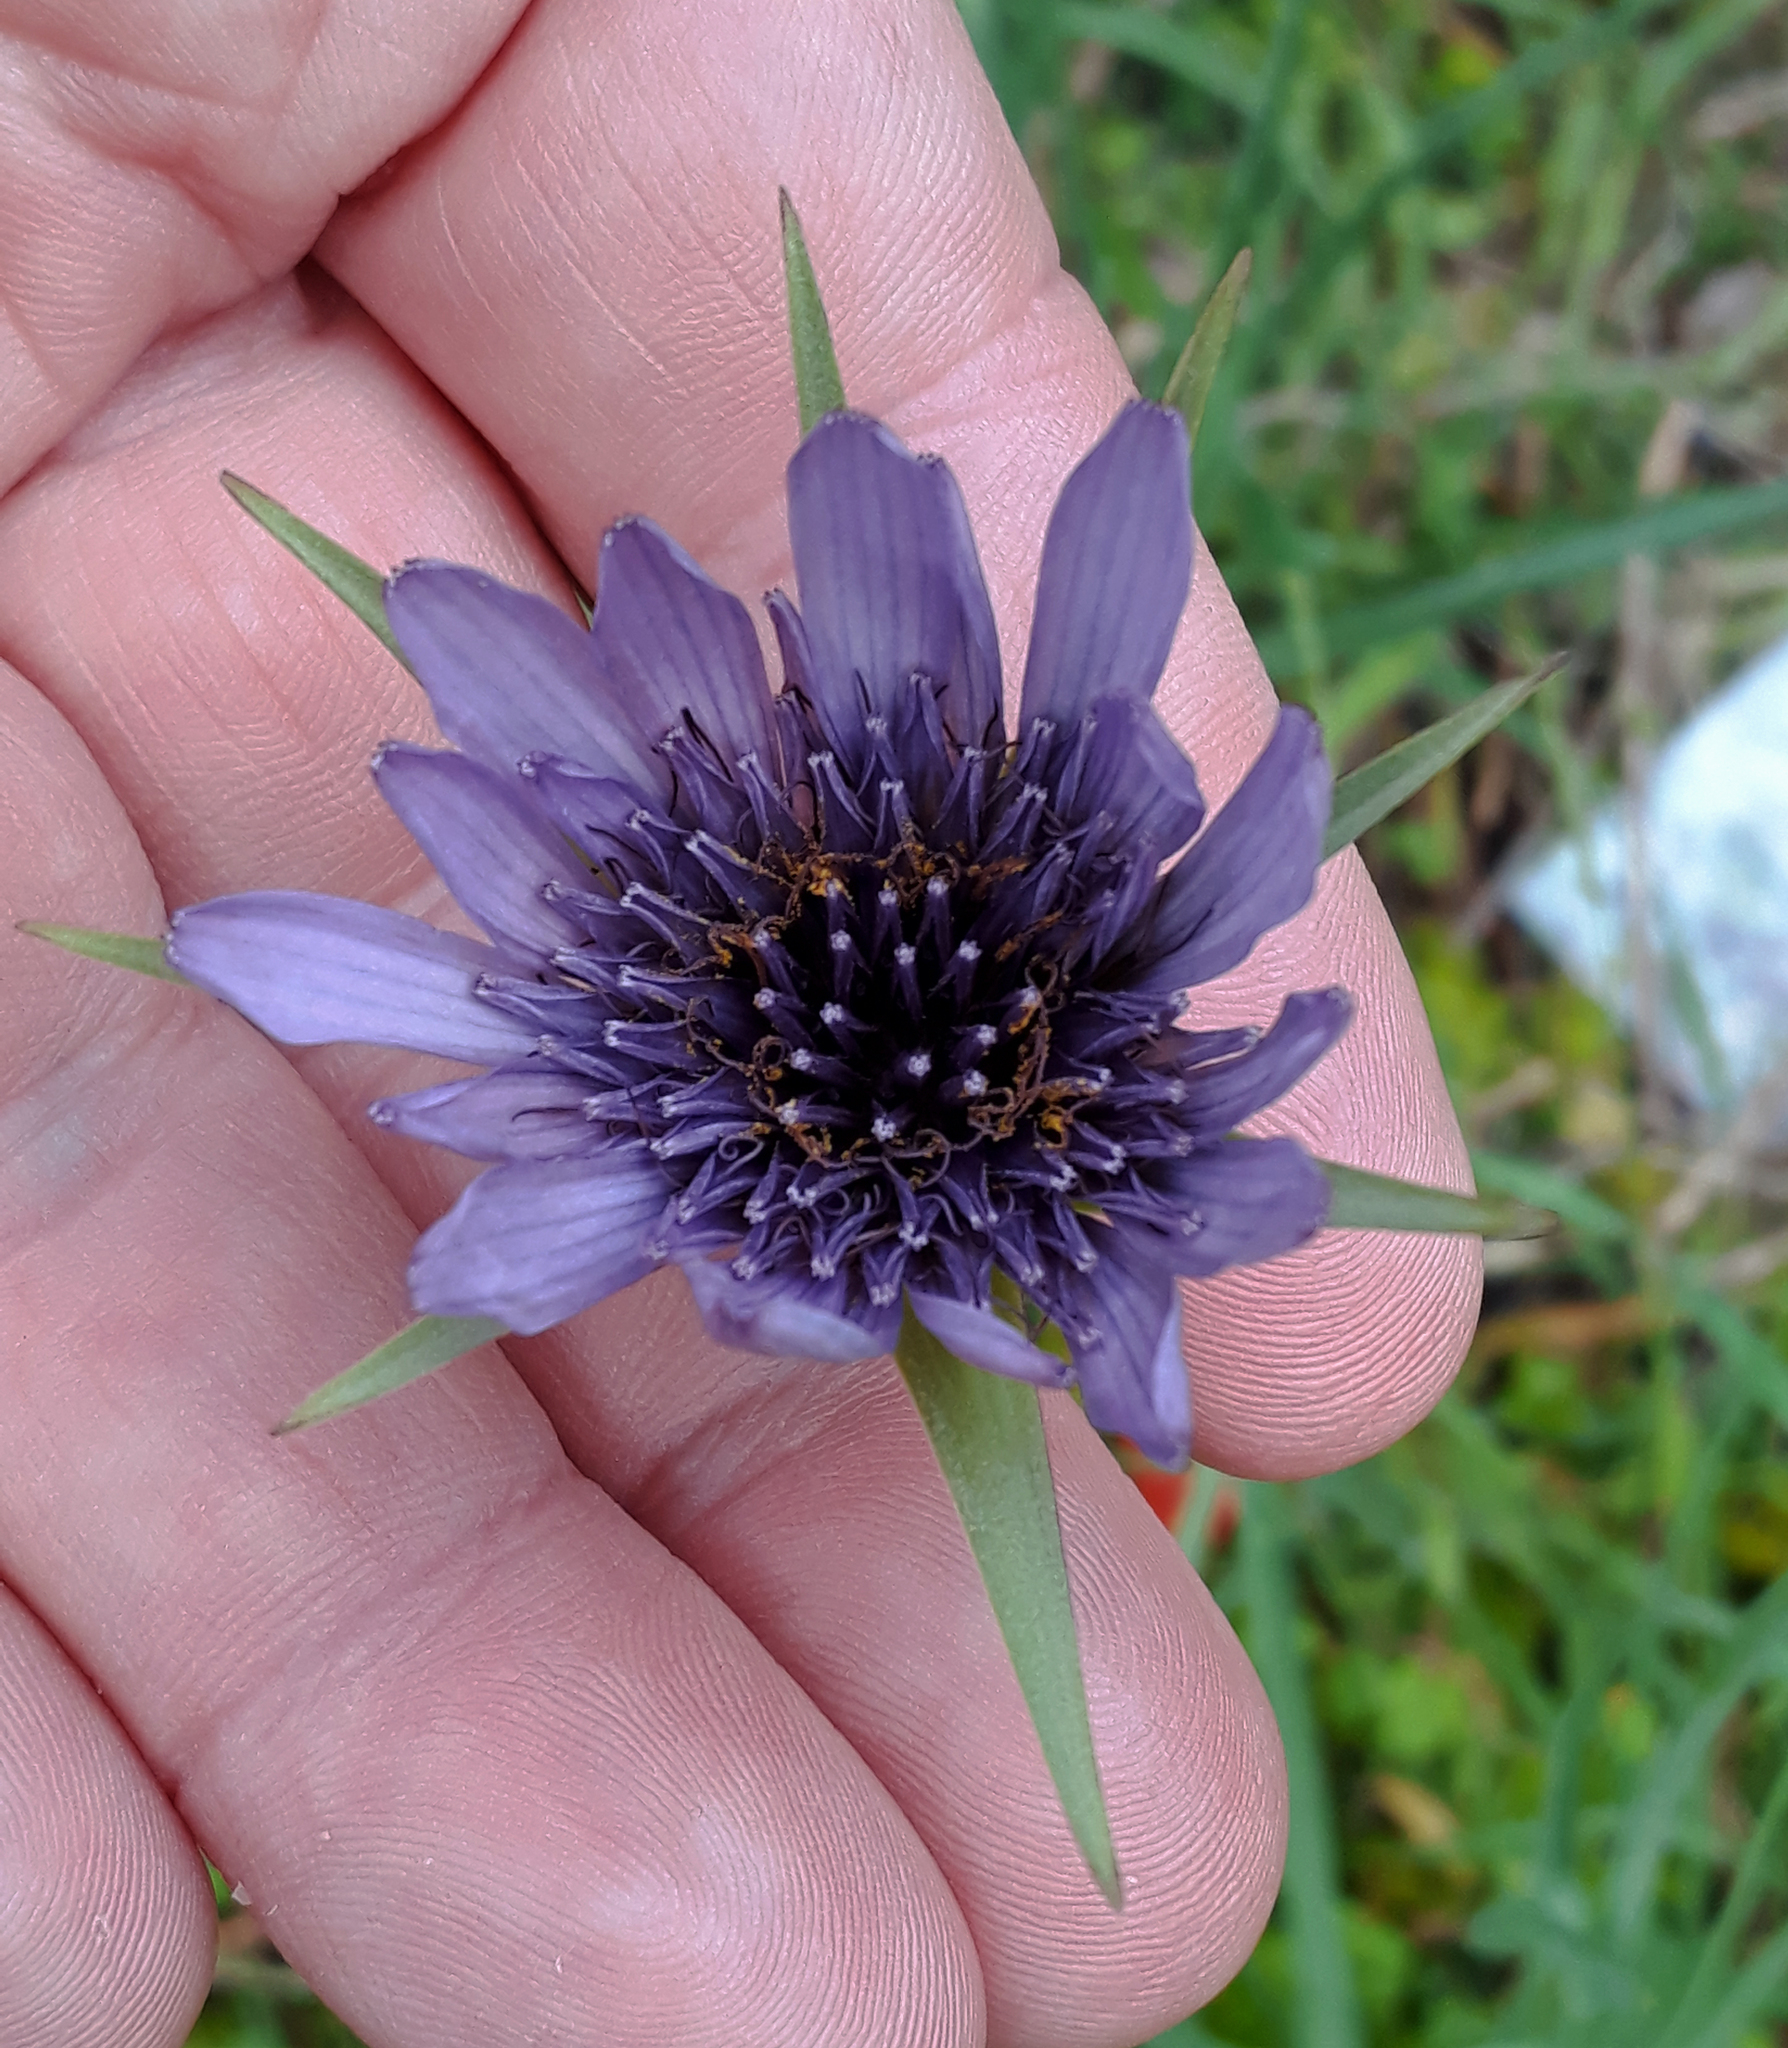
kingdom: Plantae
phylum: Tracheophyta
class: Magnoliopsida
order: Asterales
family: Asteraceae
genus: Tragopogon
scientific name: Tragopogon porrifolius
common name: Salsify
